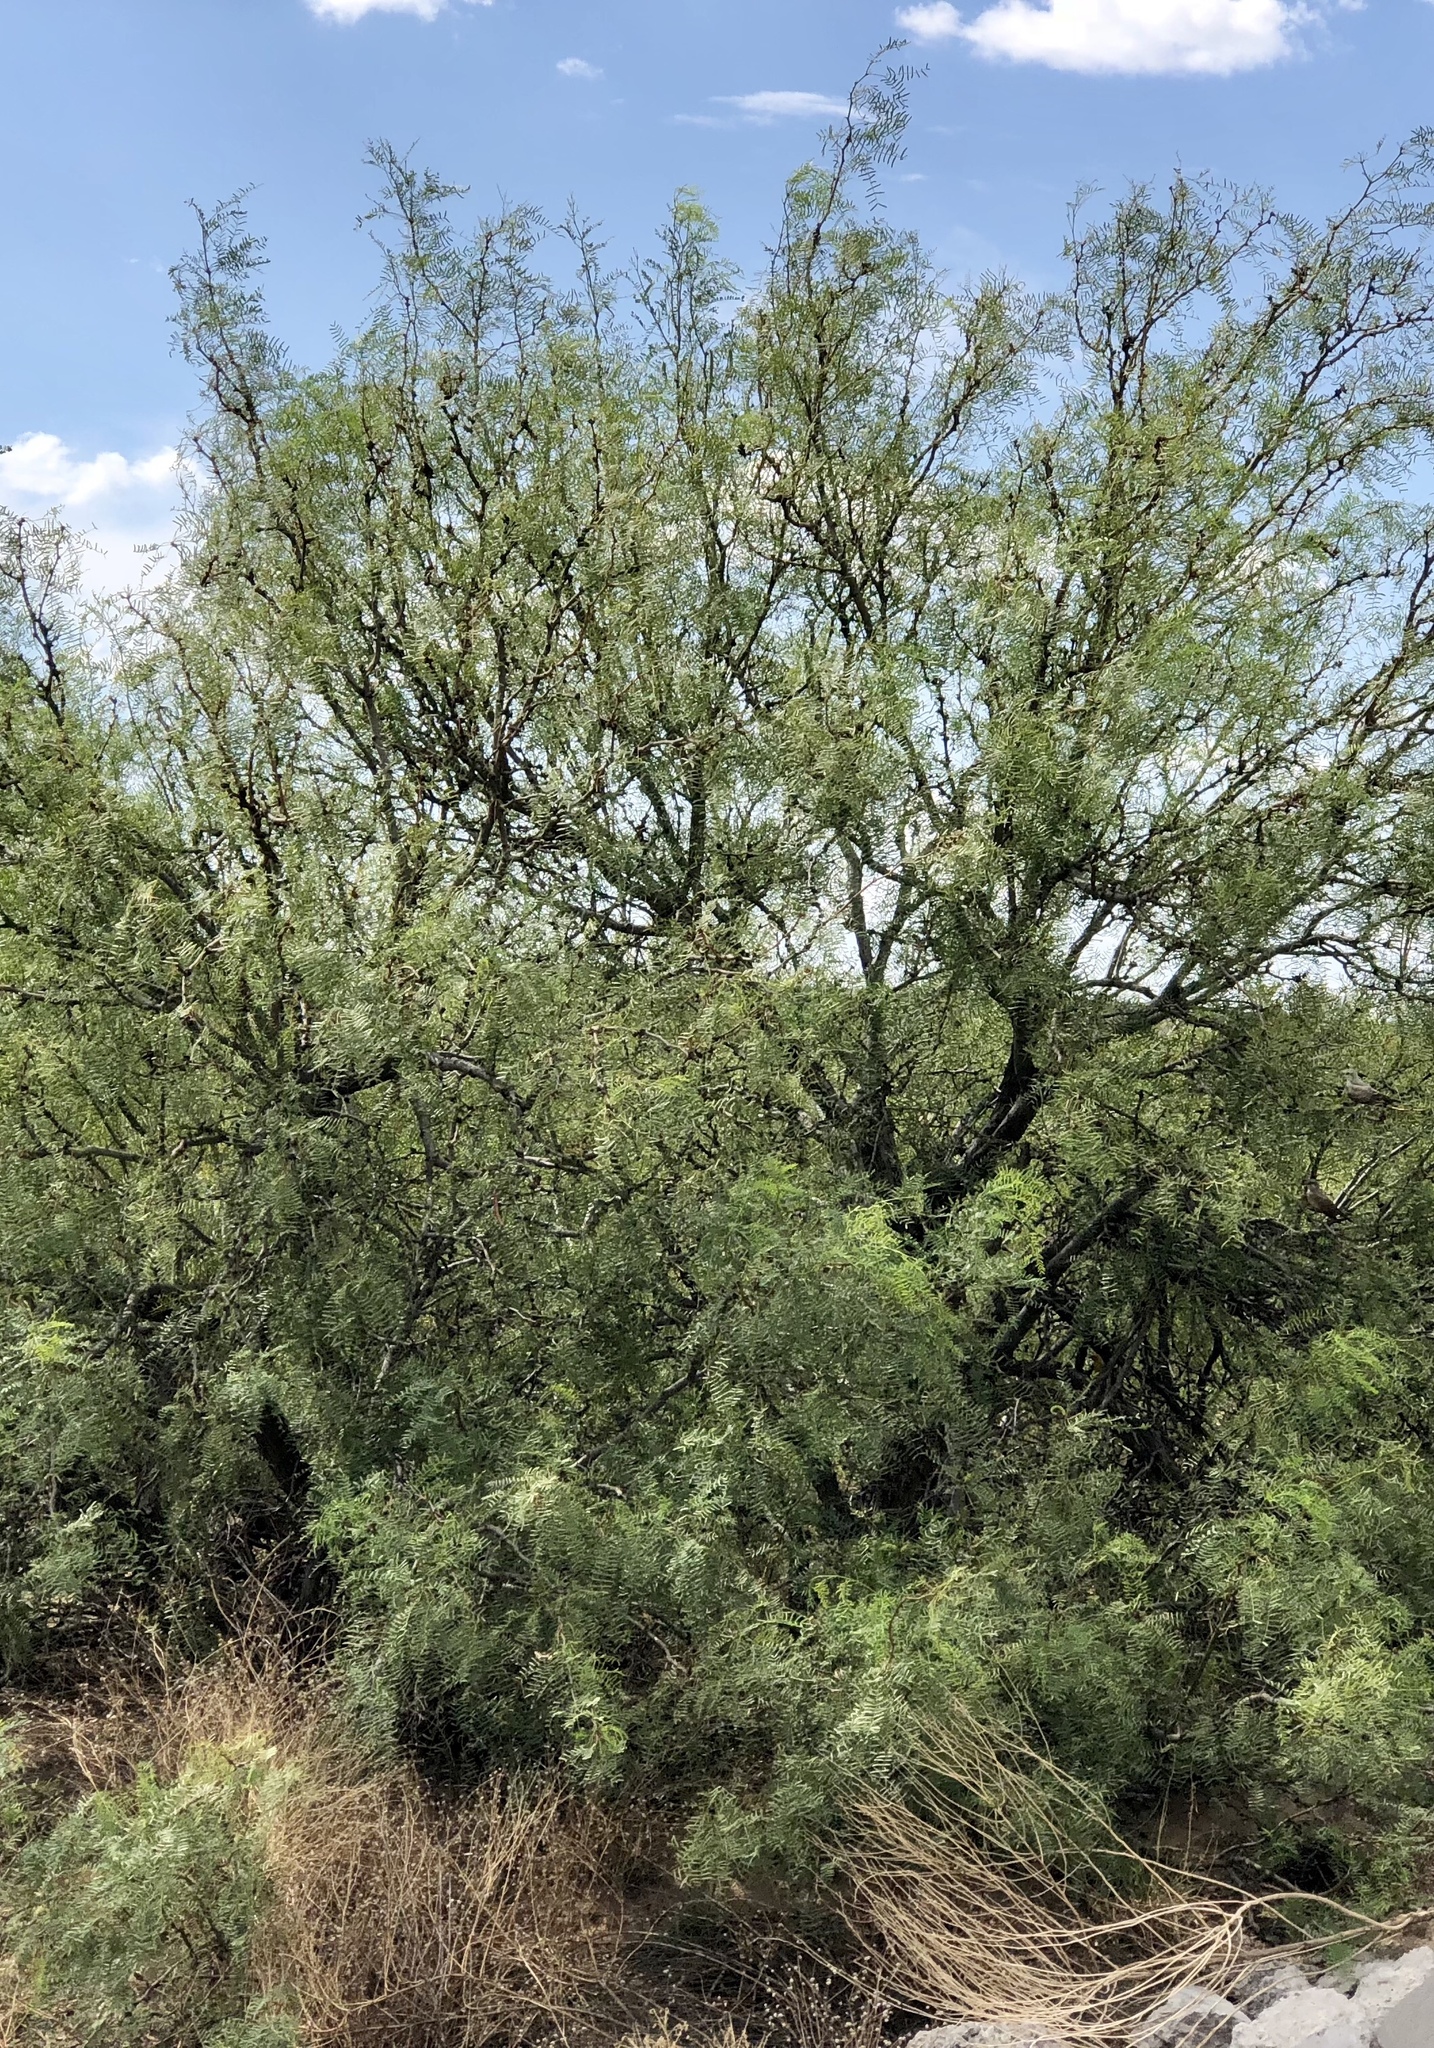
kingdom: Plantae
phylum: Tracheophyta
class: Magnoliopsida
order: Fabales
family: Fabaceae
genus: Prosopis
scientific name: Prosopis glandulosa
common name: Honey mesquite
